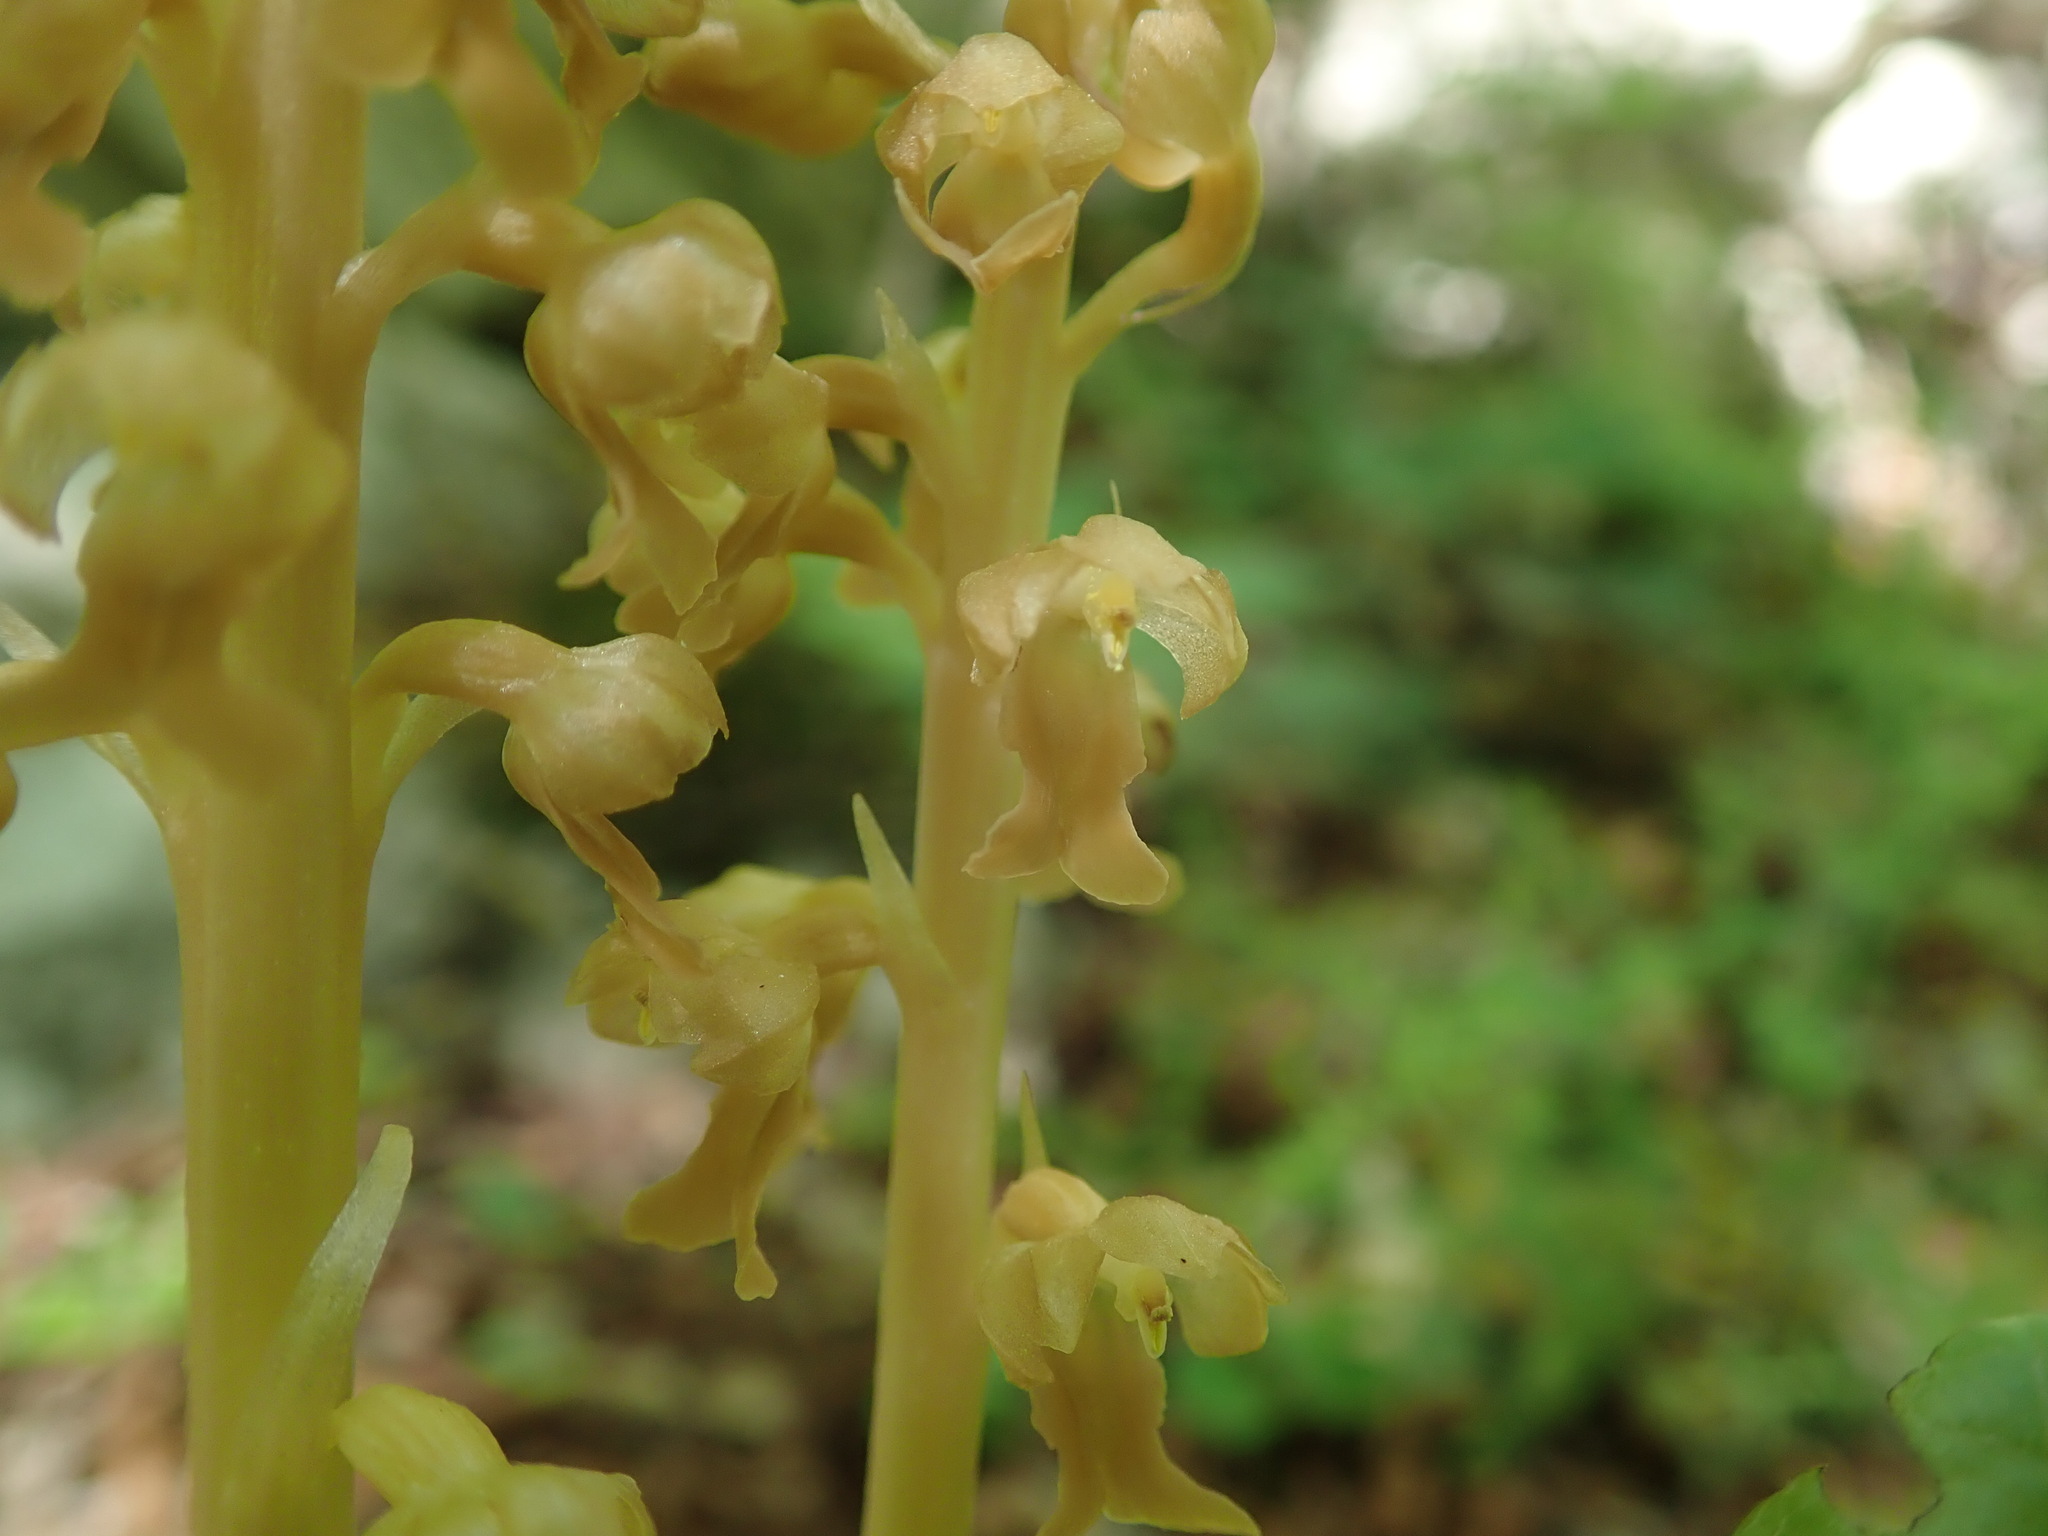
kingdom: Plantae
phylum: Tracheophyta
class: Liliopsida
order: Asparagales
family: Orchidaceae
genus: Neottia
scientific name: Neottia nidus-avis
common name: Bird's-nest orchid
